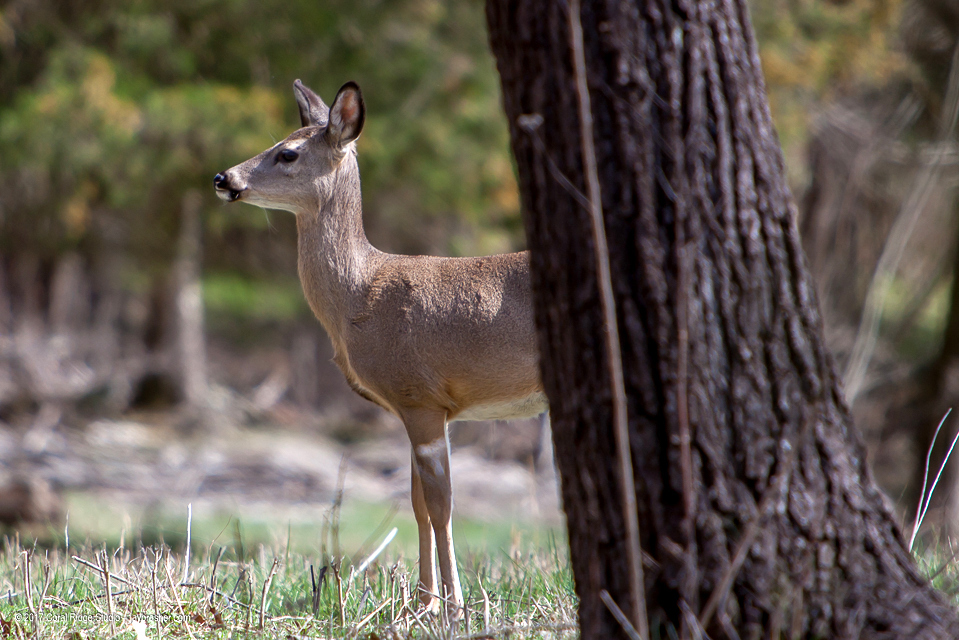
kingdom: Animalia
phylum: Chordata
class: Mammalia
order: Artiodactyla
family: Cervidae
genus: Odocoileus
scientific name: Odocoileus virginianus
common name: White-tailed deer
